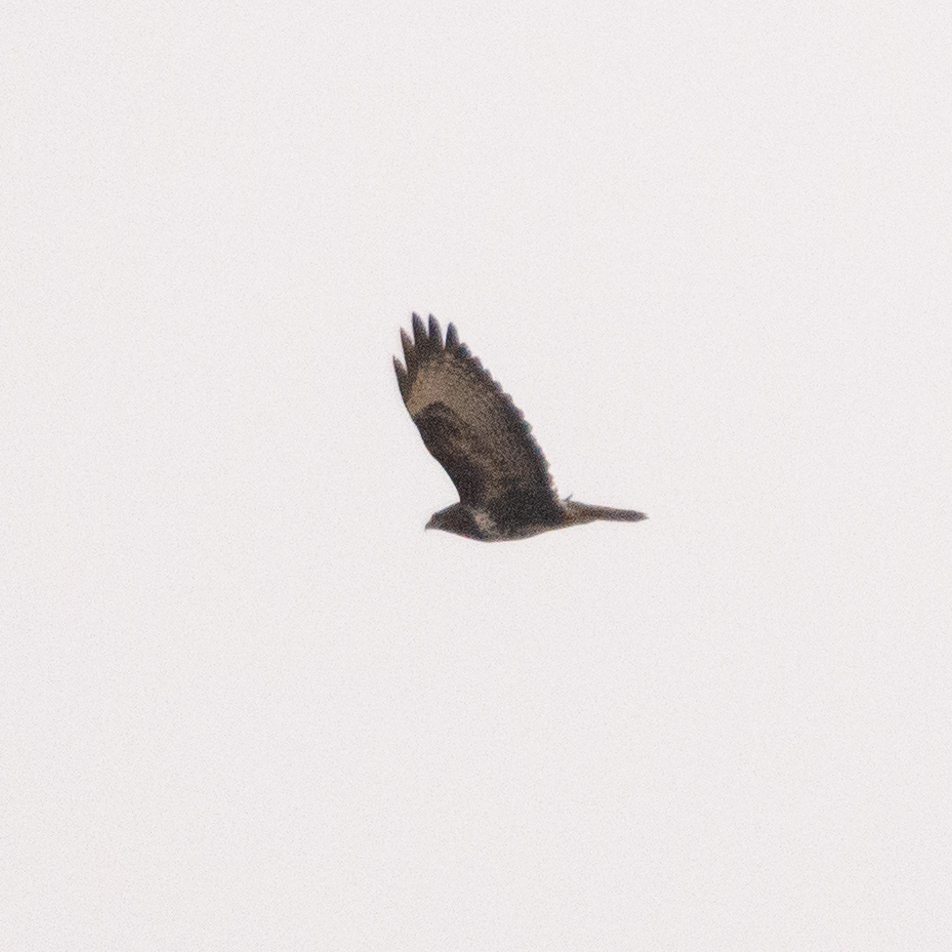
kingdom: Animalia
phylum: Chordata
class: Aves
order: Accipitriformes
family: Accipitridae
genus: Buteo
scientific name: Buteo buteo
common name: Common buzzard
